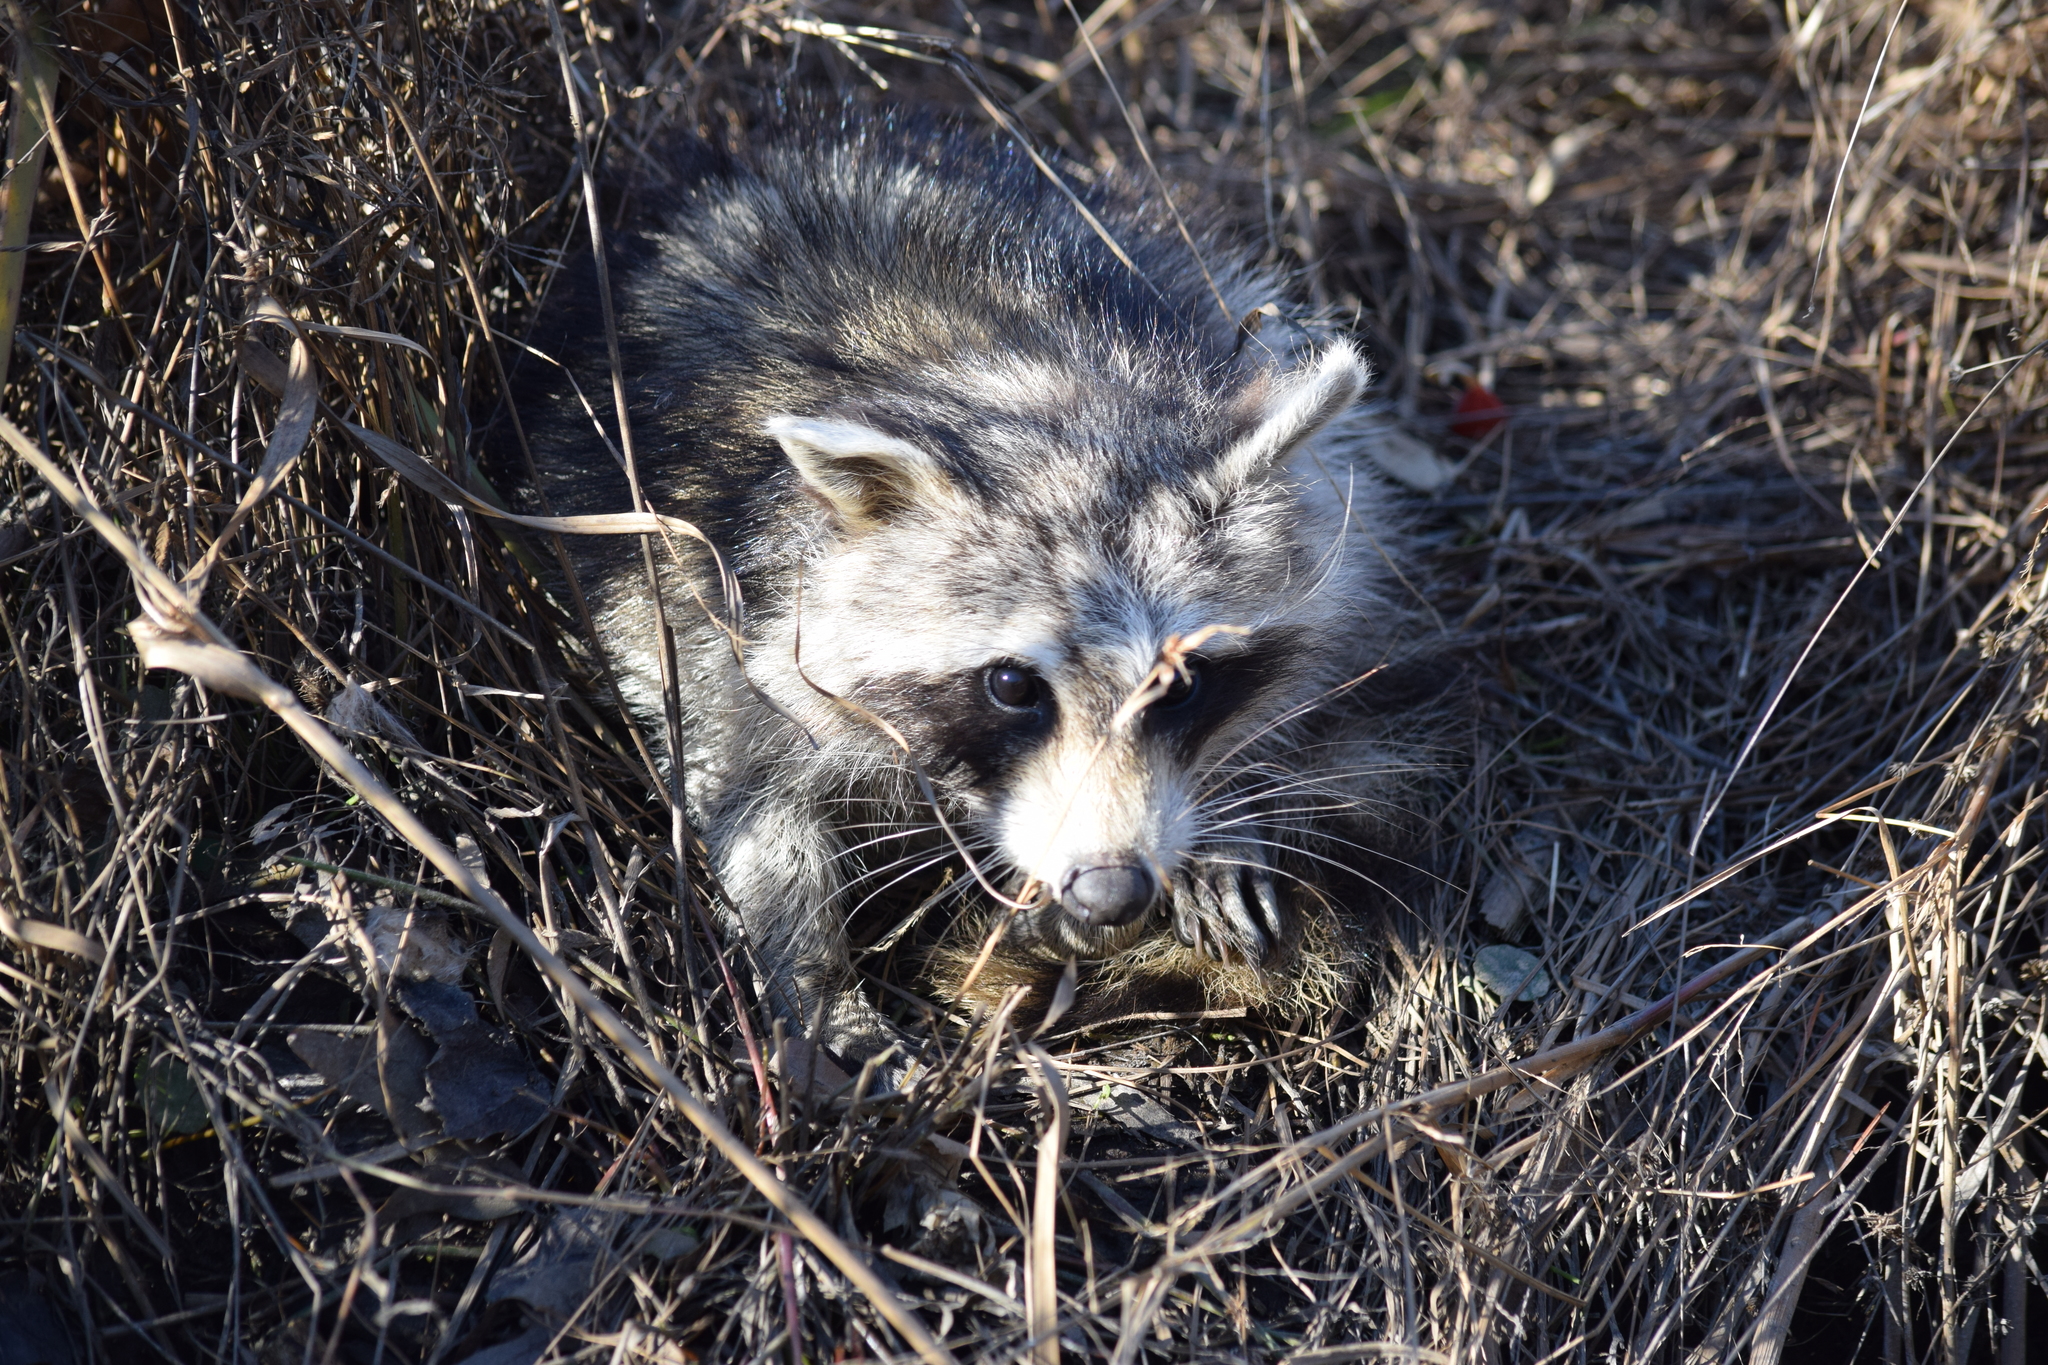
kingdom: Animalia
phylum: Chordata
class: Mammalia
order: Carnivora
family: Procyonidae
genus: Procyon
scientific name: Procyon lotor
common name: Raccoon
